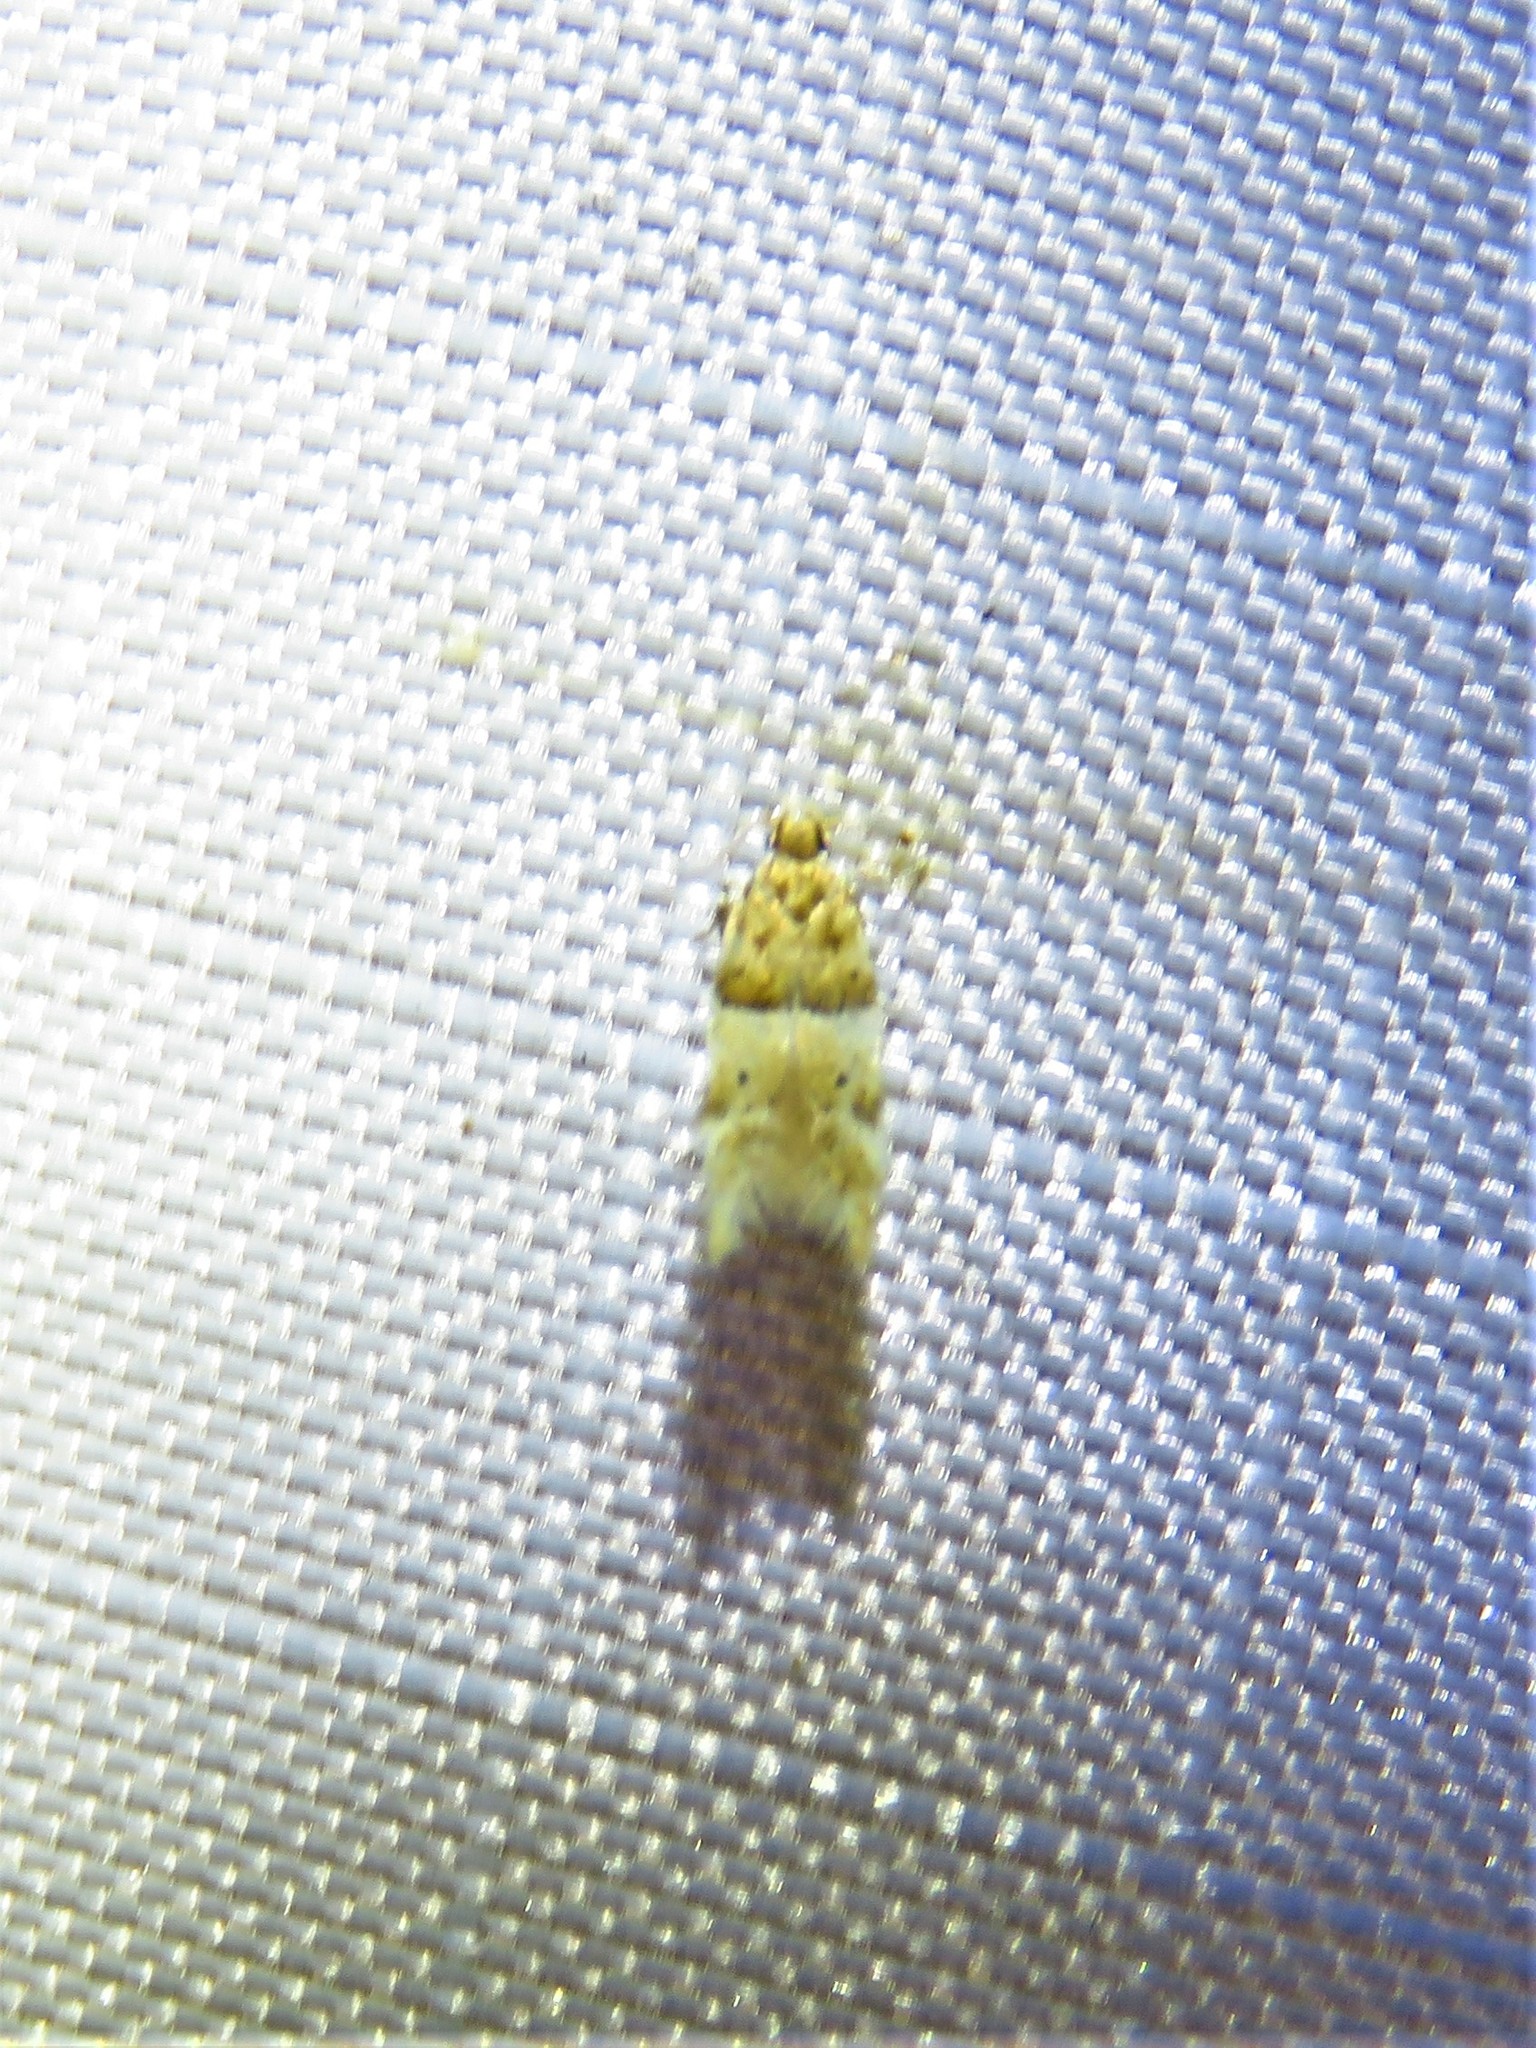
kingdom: Animalia
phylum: Arthropoda
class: Insecta
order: Lepidoptera
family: Gelechiidae
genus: Theisoa
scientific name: Theisoa constrictella
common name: Constricted twirler
